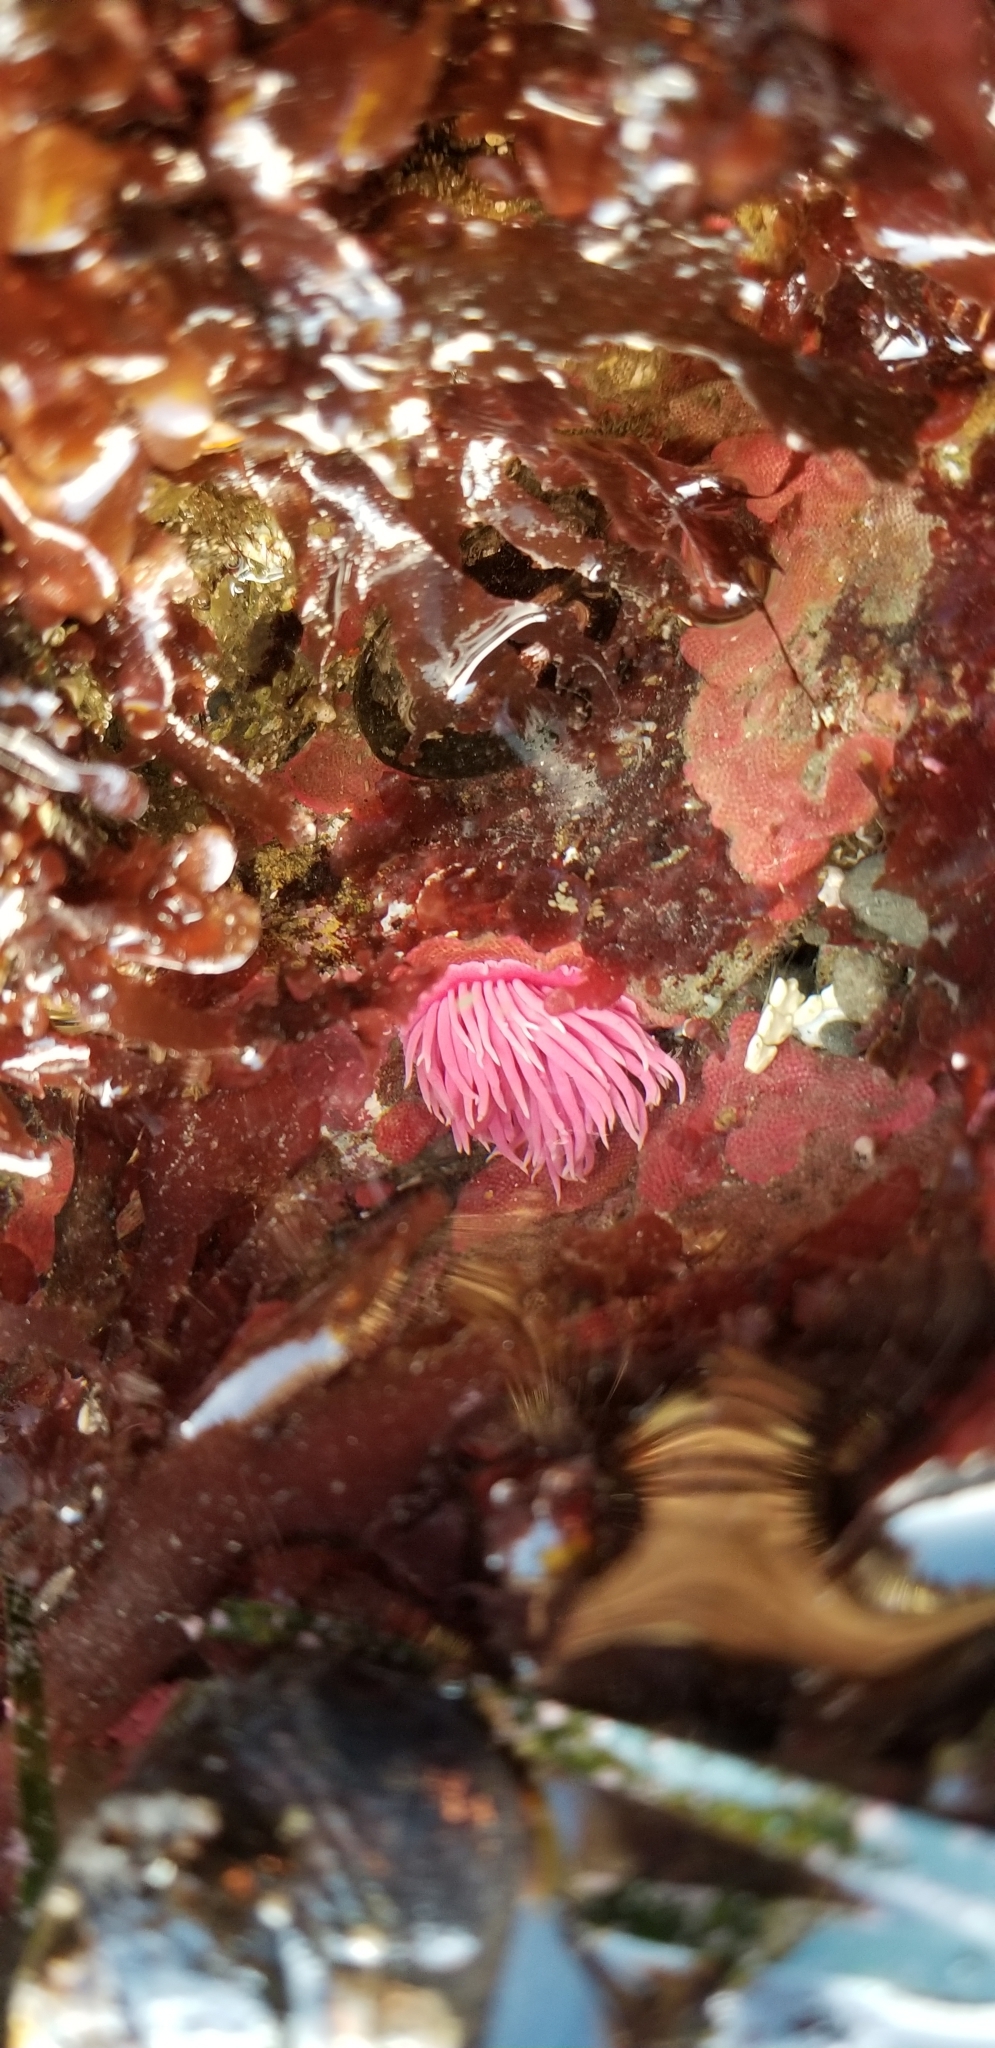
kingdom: Animalia
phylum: Mollusca
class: Gastropoda
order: Nudibranchia
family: Goniodorididae
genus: Okenia
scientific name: Okenia
